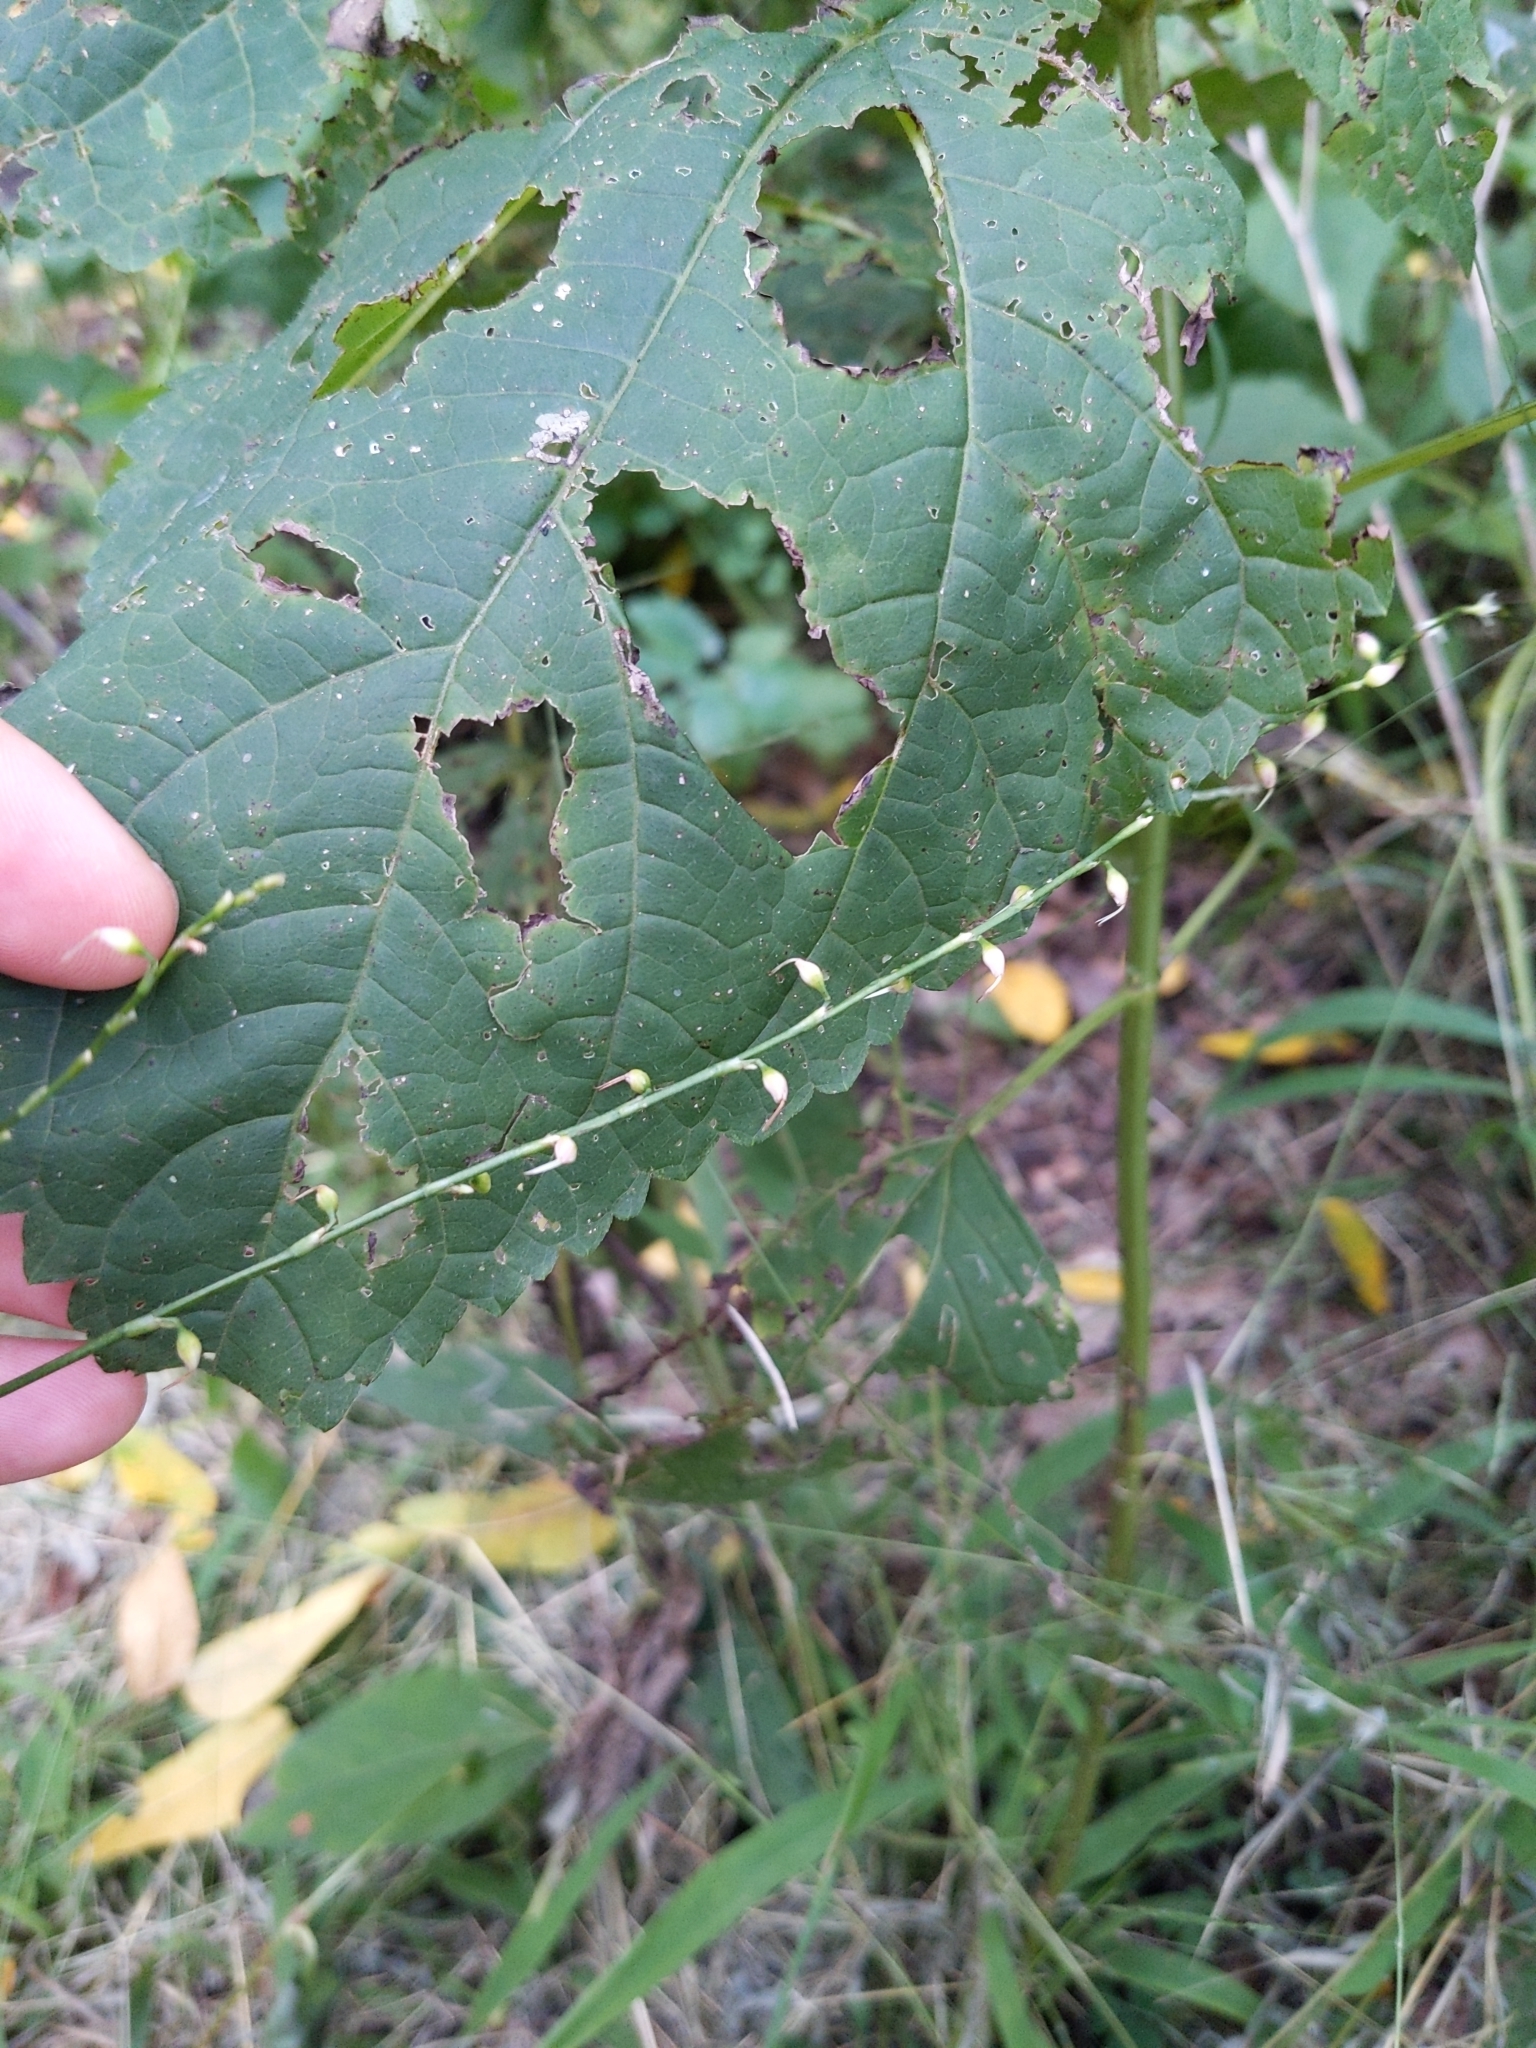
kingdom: Plantae
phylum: Tracheophyta
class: Magnoliopsida
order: Caryophyllales
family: Polygonaceae
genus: Persicaria
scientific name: Persicaria virginiana
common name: Jumpseed
